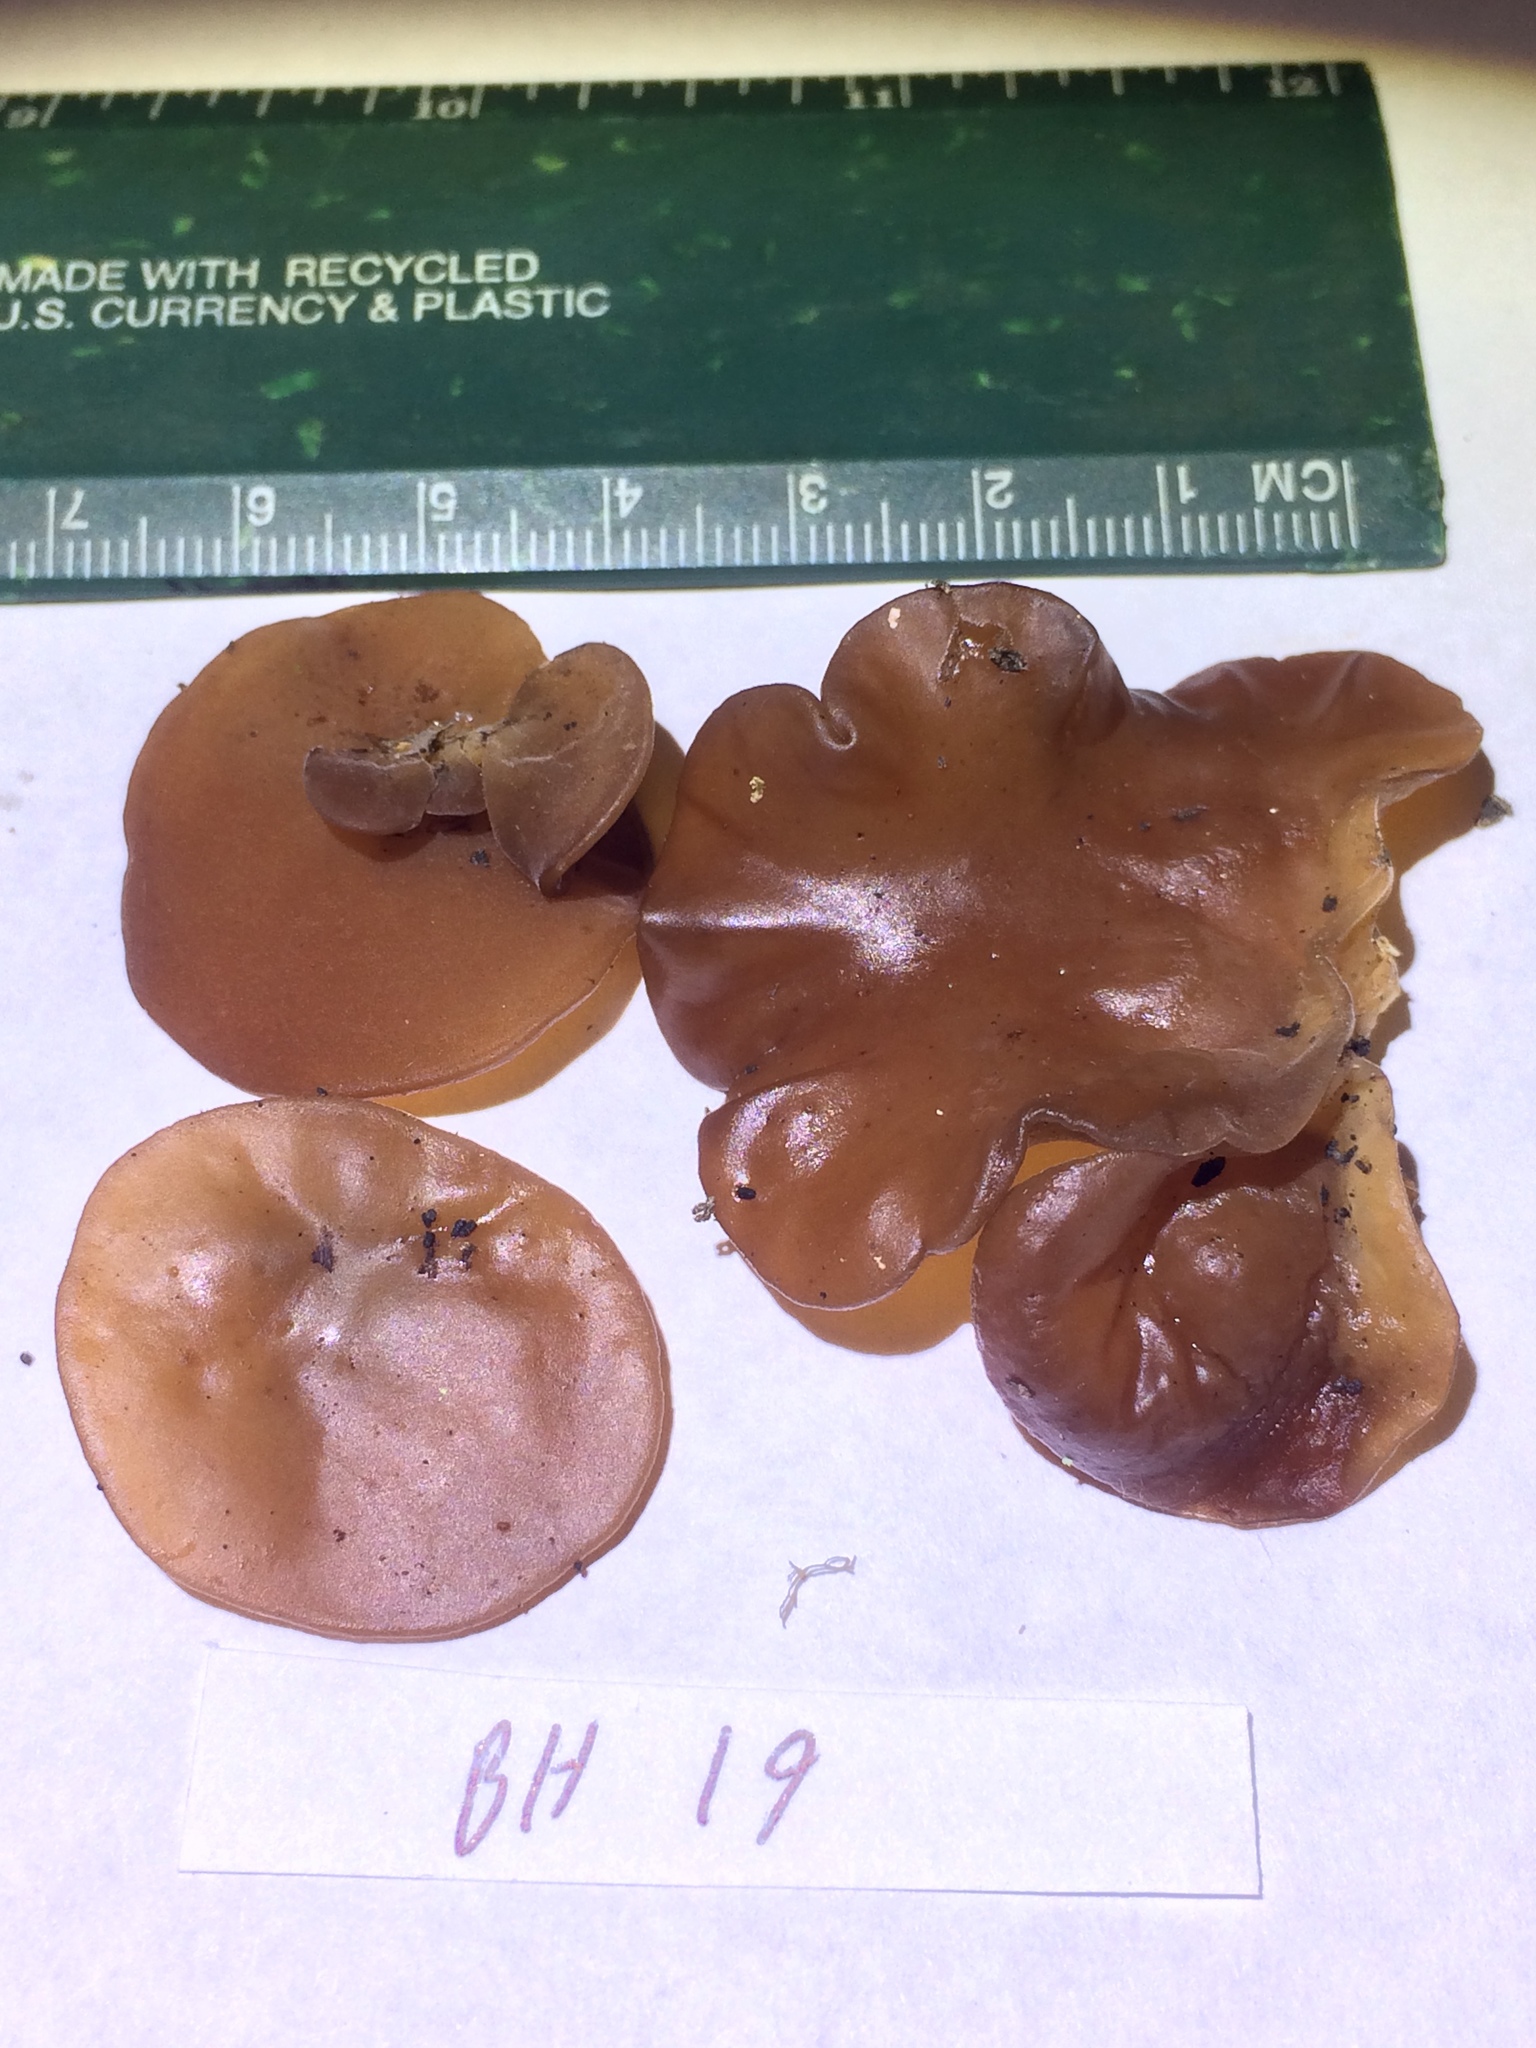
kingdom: Fungi
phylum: Basidiomycota
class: Agaricomycetes
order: Auriculariales
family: Auriculariaceae
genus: Auricularia
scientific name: Auricularia angiospermarum
